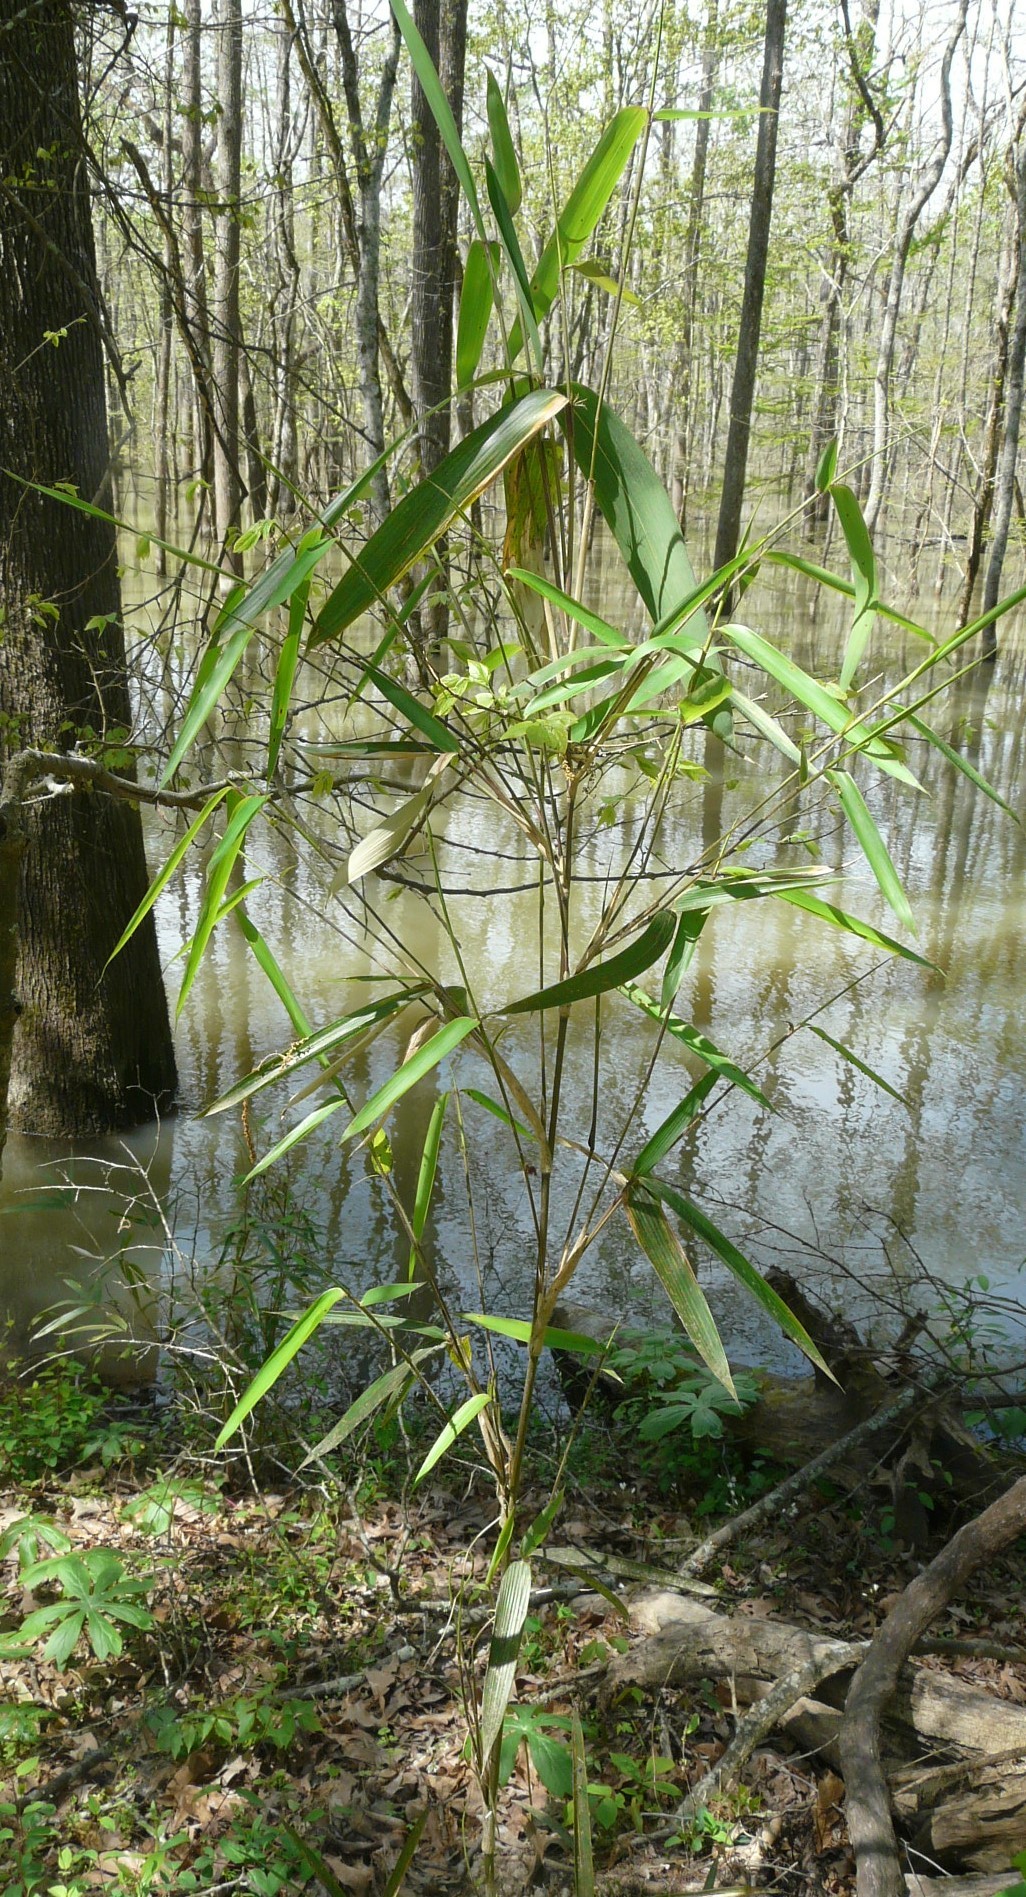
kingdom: Plantae
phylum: Tracheophyta
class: Liliopsida
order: Poales
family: Poaceae
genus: Arundinaria
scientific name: Arundinaria gigantea
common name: Giant cane
